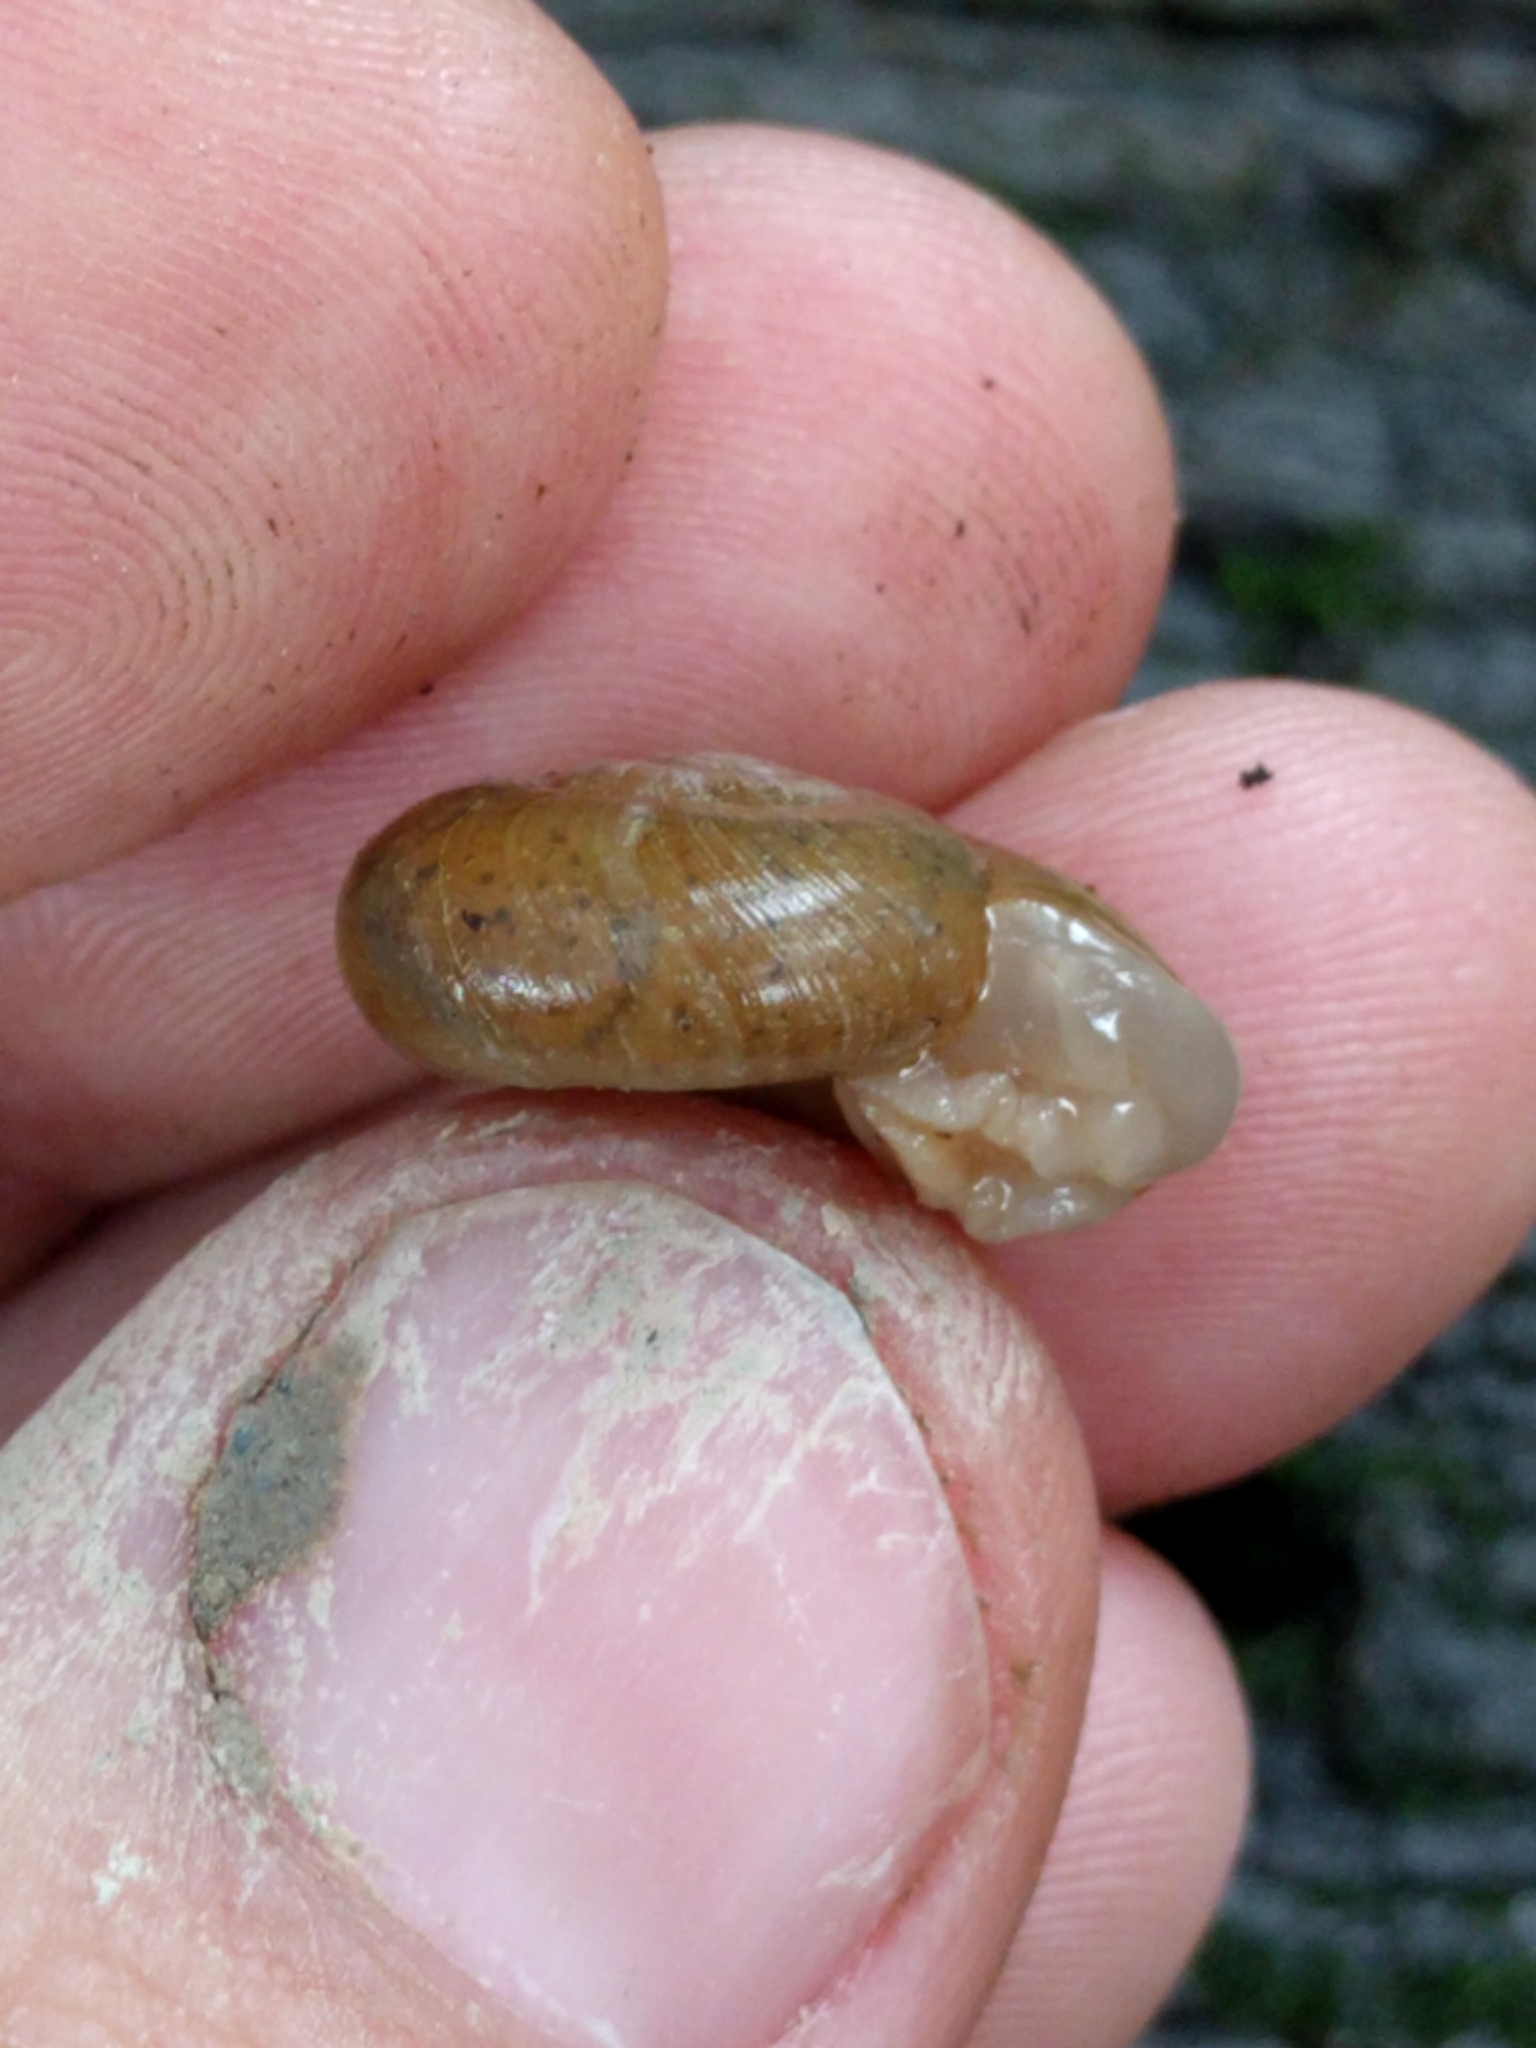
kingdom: Animalia
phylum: Mollusca
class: Gastropoda
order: Stylommatophora
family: Haplotrematidae
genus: Haplotrema
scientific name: Haplotrema minimum
